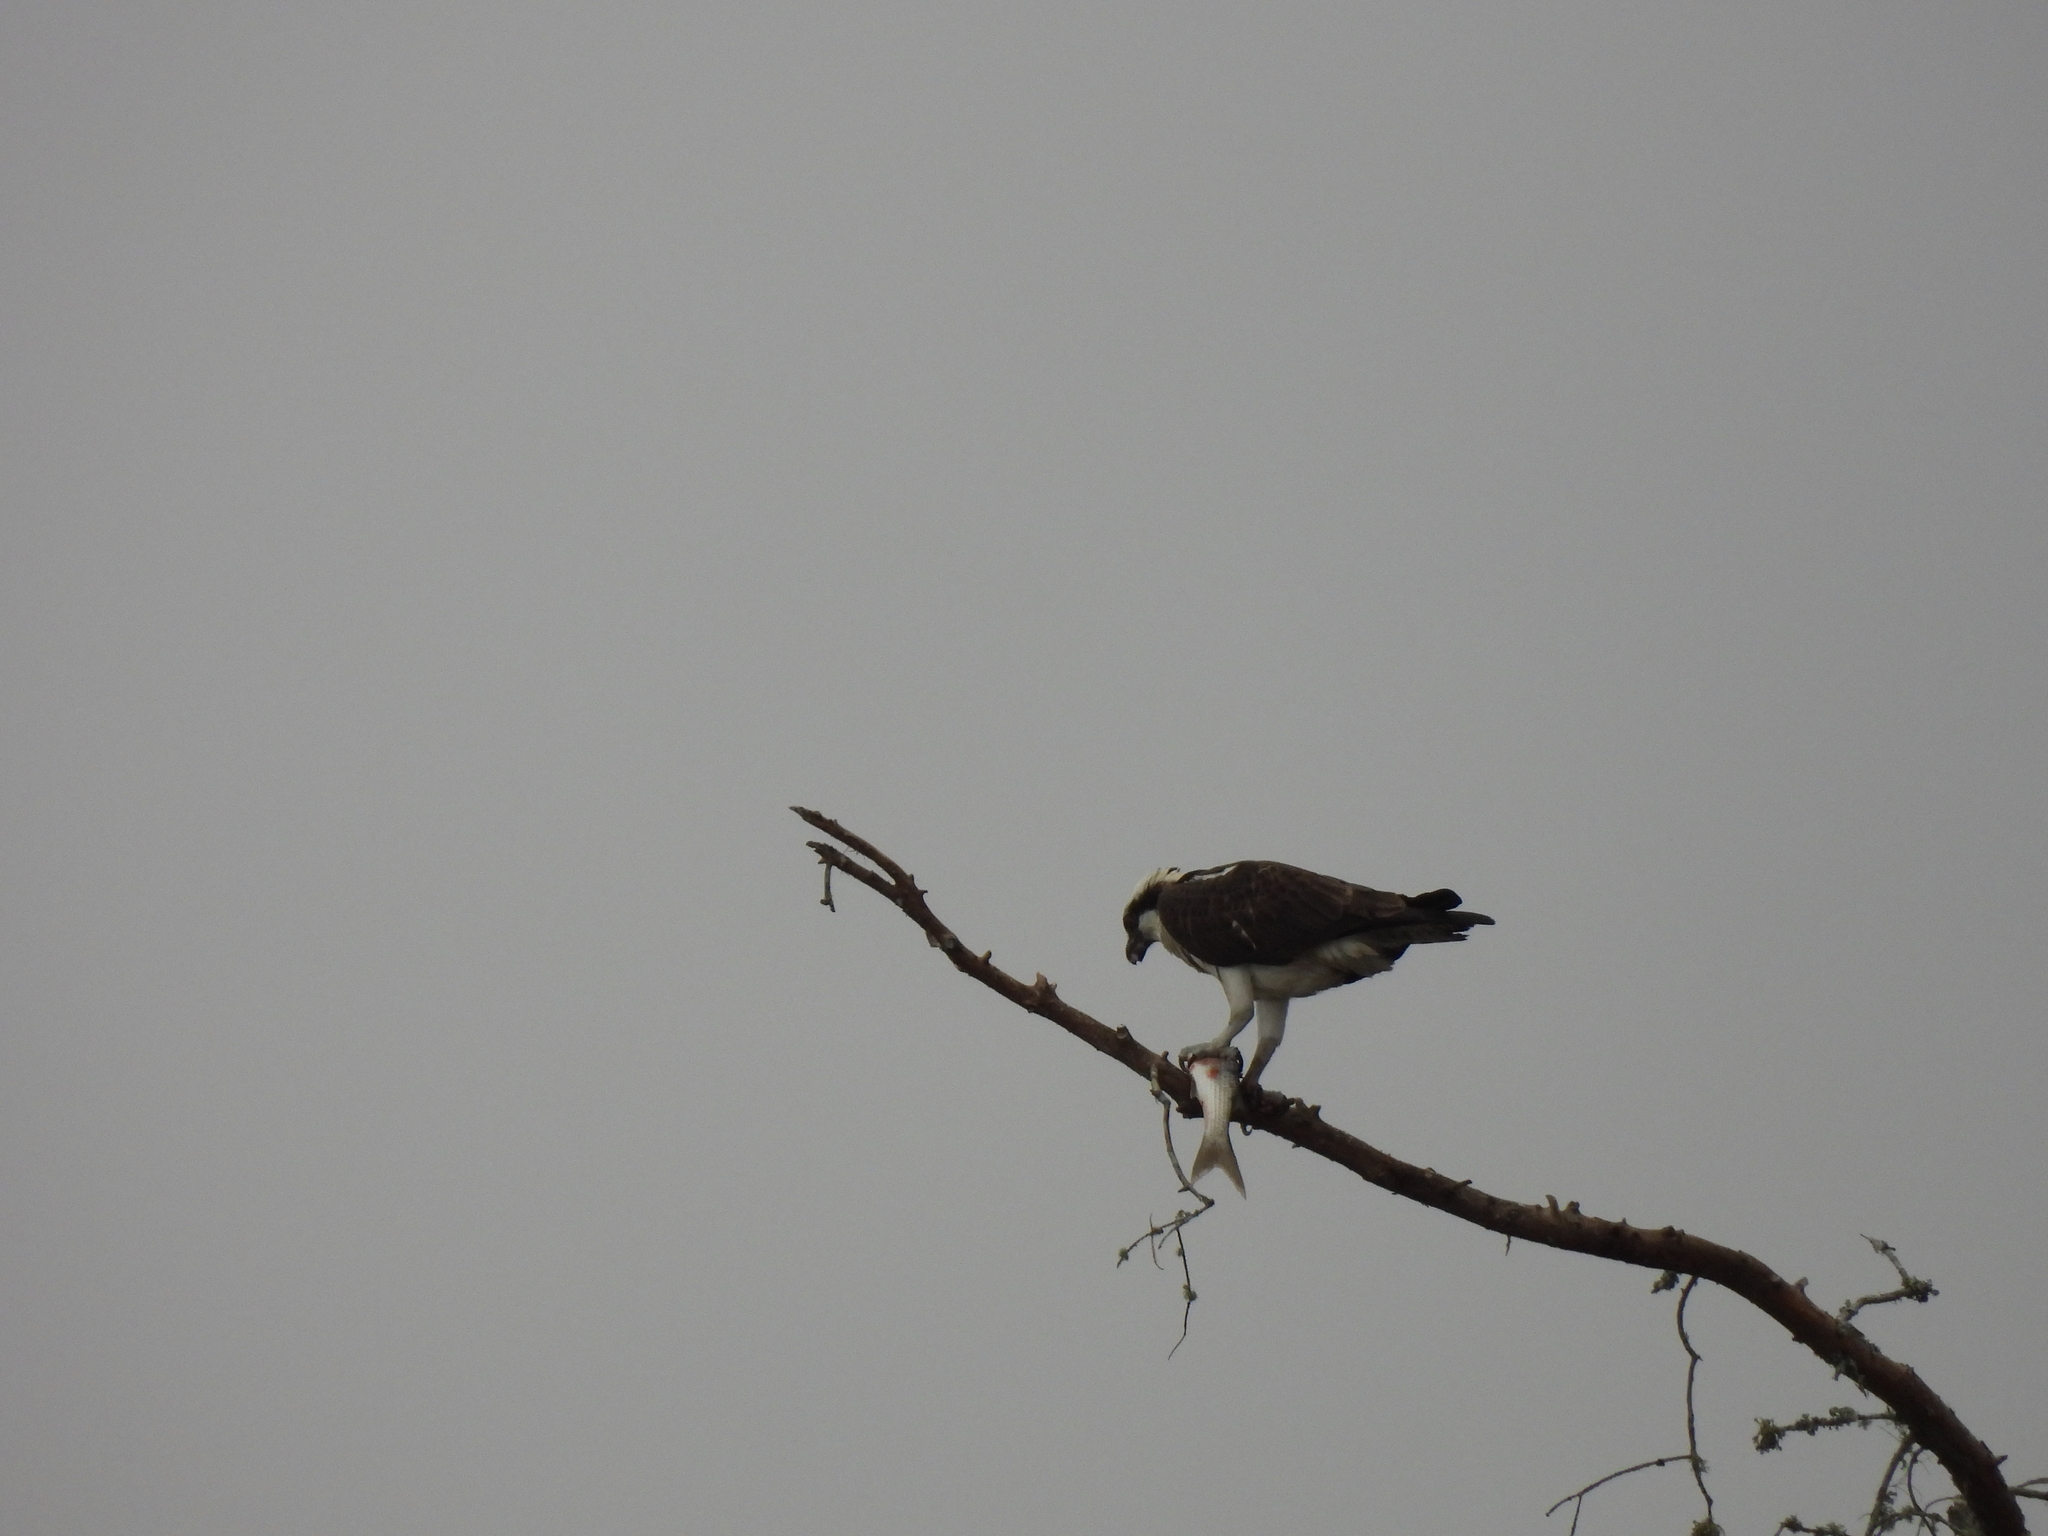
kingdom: Animalia
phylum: Chordata
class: Aves
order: Accipitriformes
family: Pandionidae
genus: Pandion
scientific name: Pandion haliaetus
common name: Osprey
